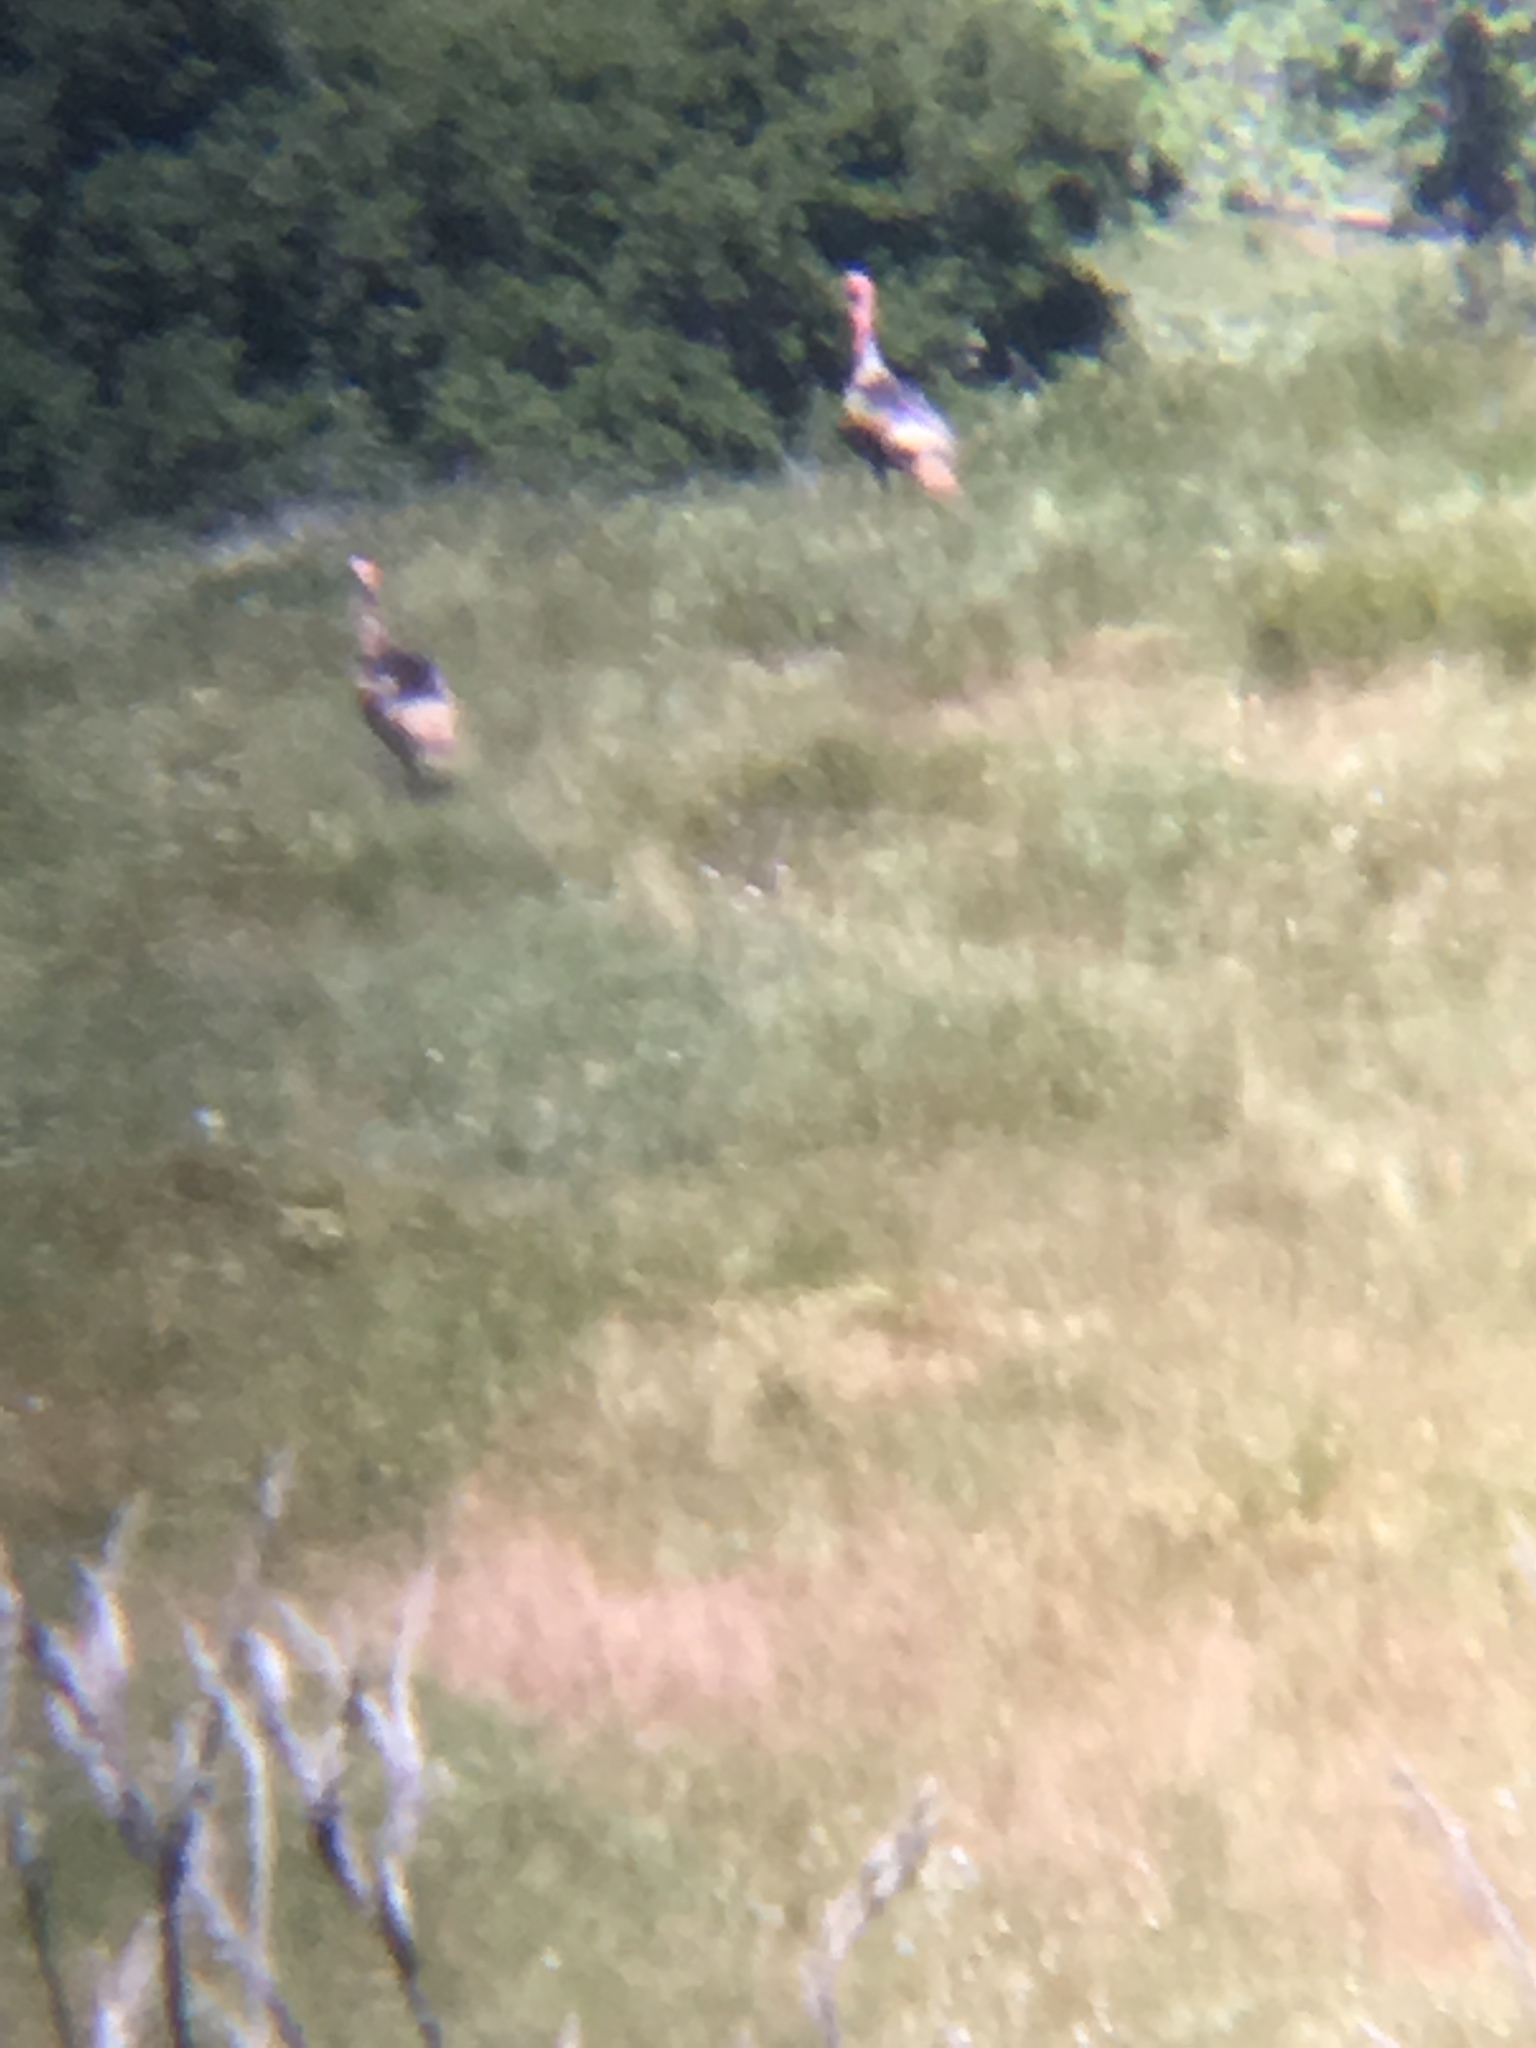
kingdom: Animalia
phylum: Chordata
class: Aves
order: Galliformes
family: Phasianidae
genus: Meleagris
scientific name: Meleagris gallopavo
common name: Wild turkey
